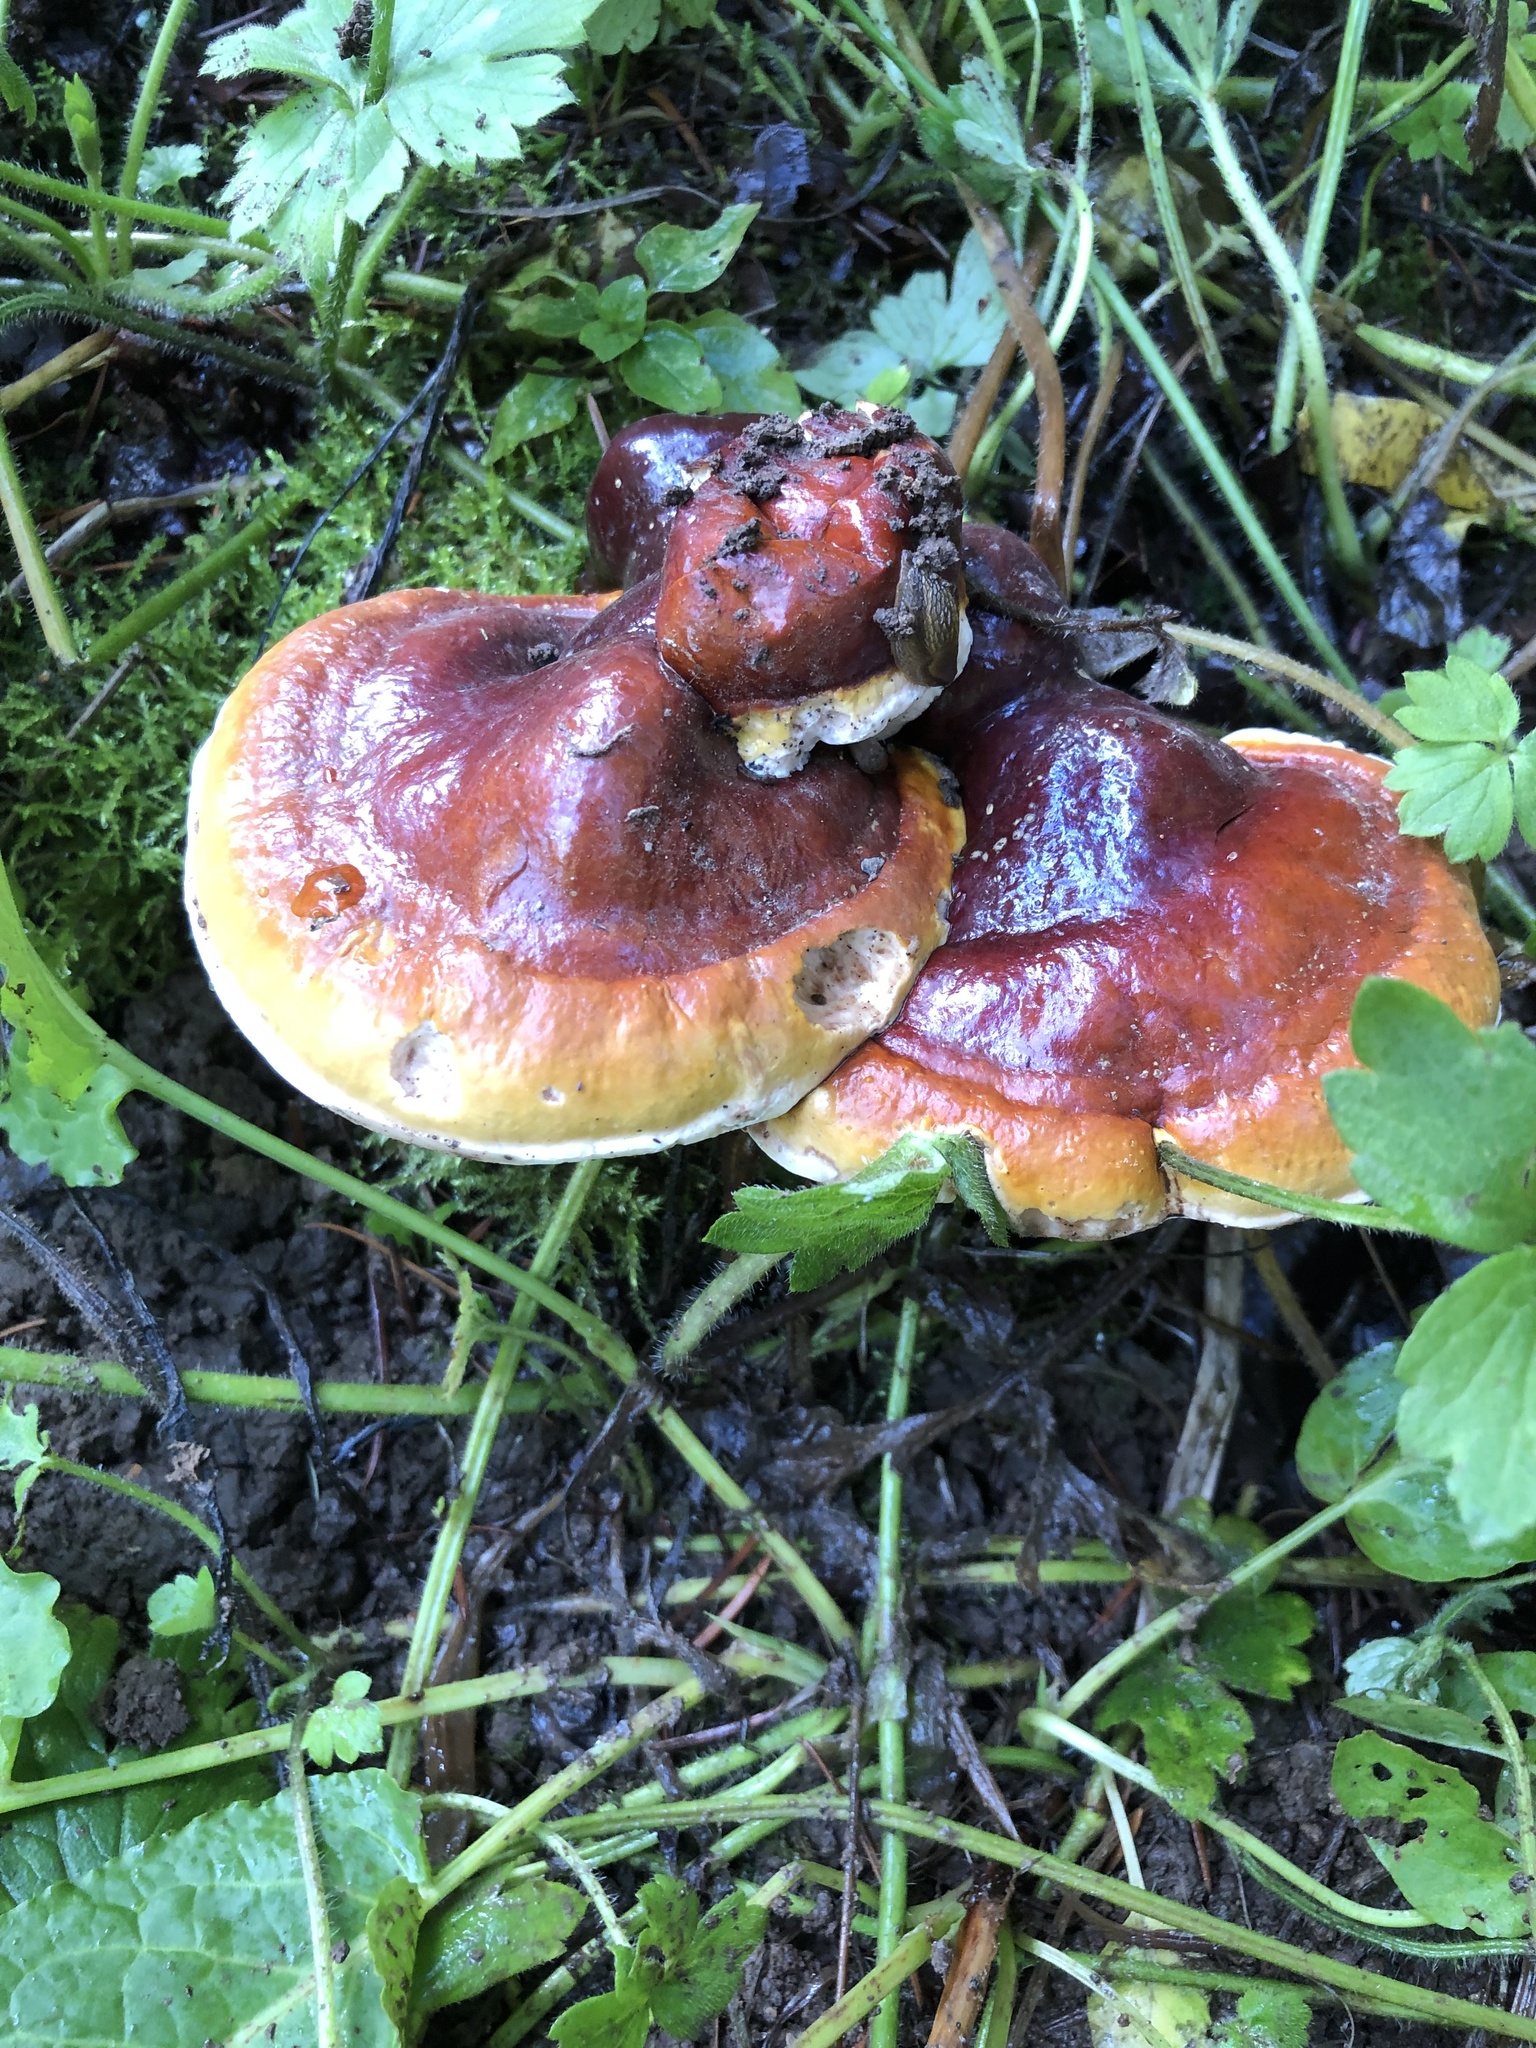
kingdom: Fungi
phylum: Basidiomycota
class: Agaricomycetes
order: Polyporales
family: Polyporaceae
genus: Ganoderma
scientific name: Ganoderma oregonense
